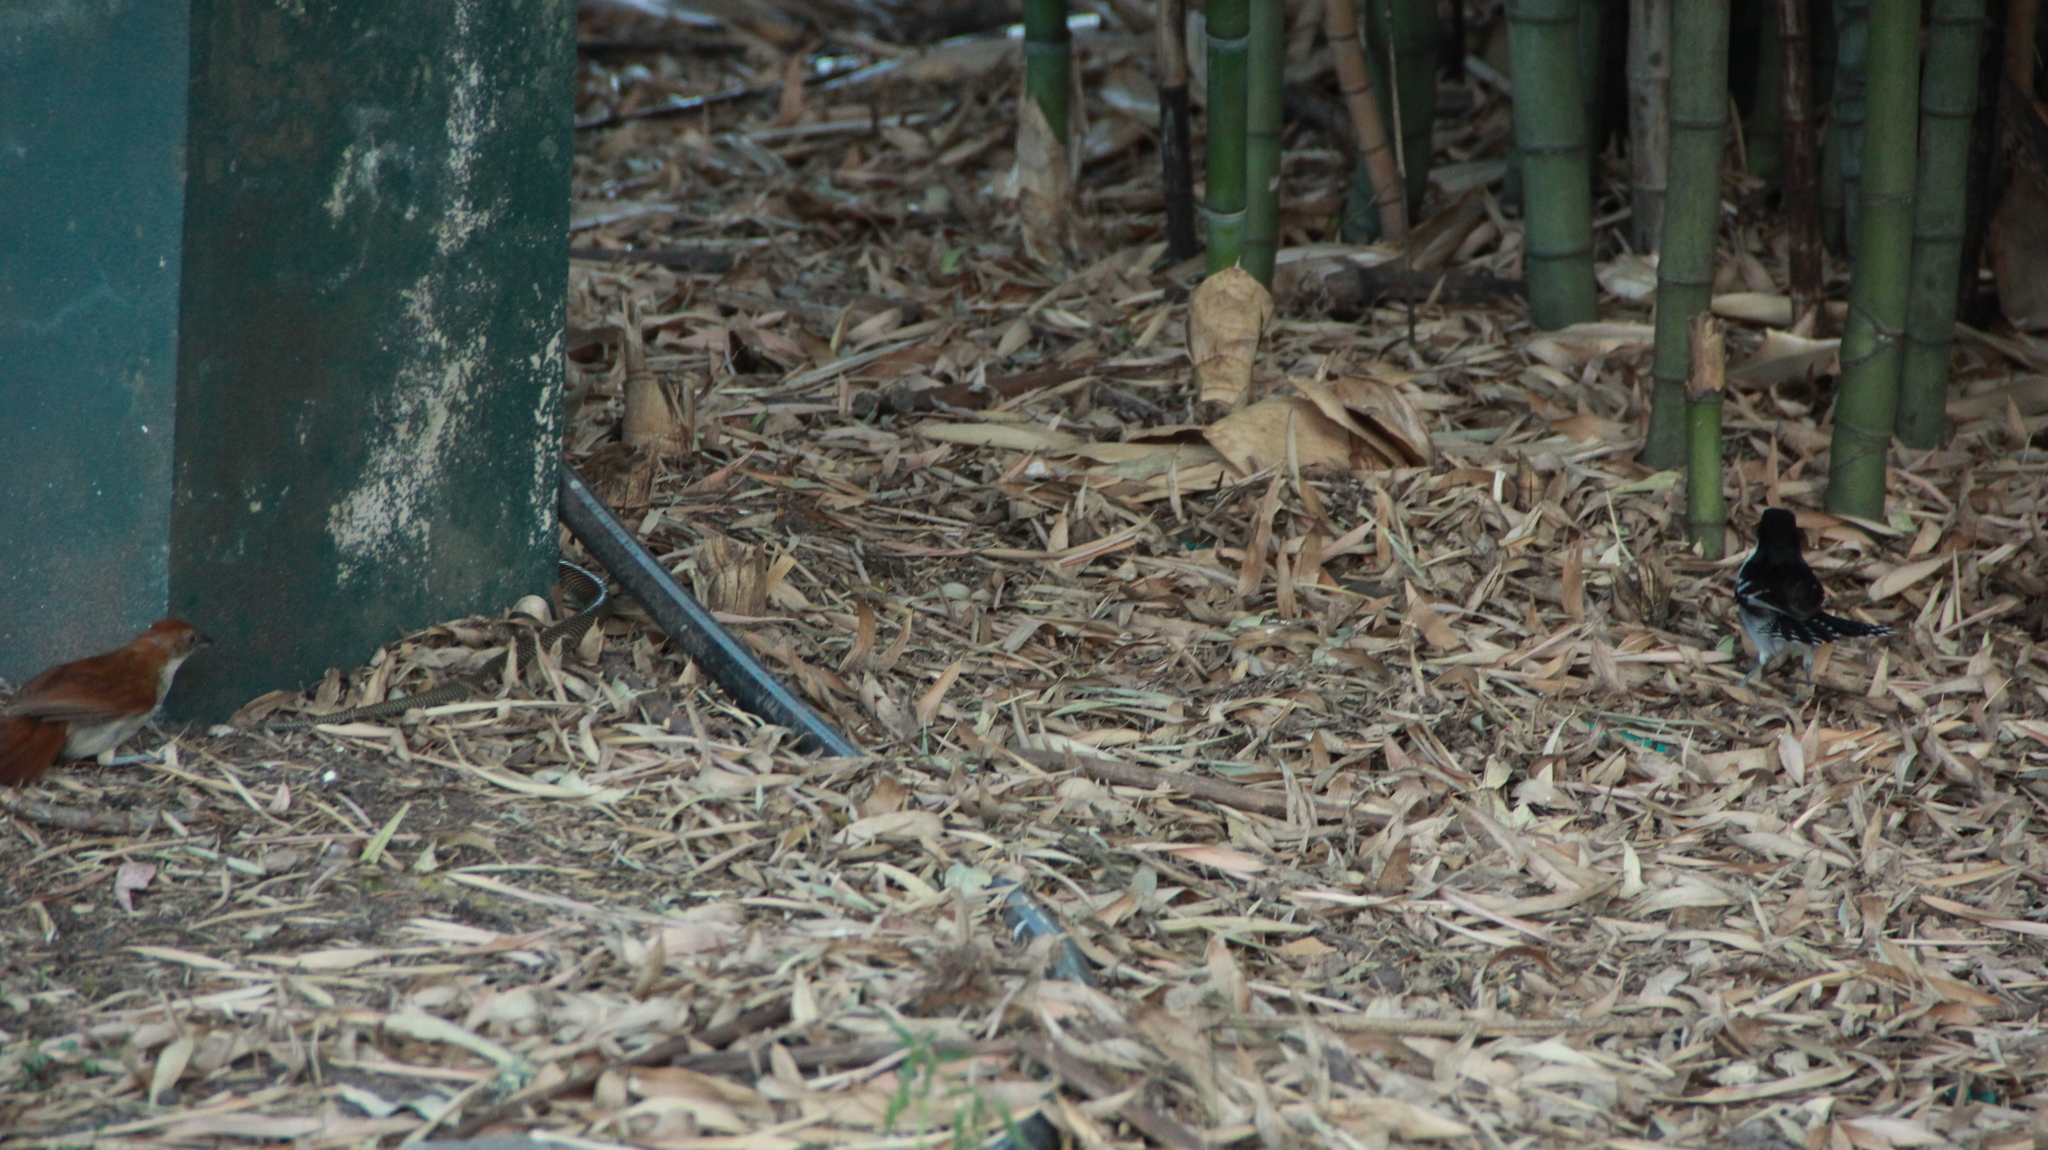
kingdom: Animalia
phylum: Chordata
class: Squamata
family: Colubridae
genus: Erythrolamprus
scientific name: Erythrolamprus semiaureus
